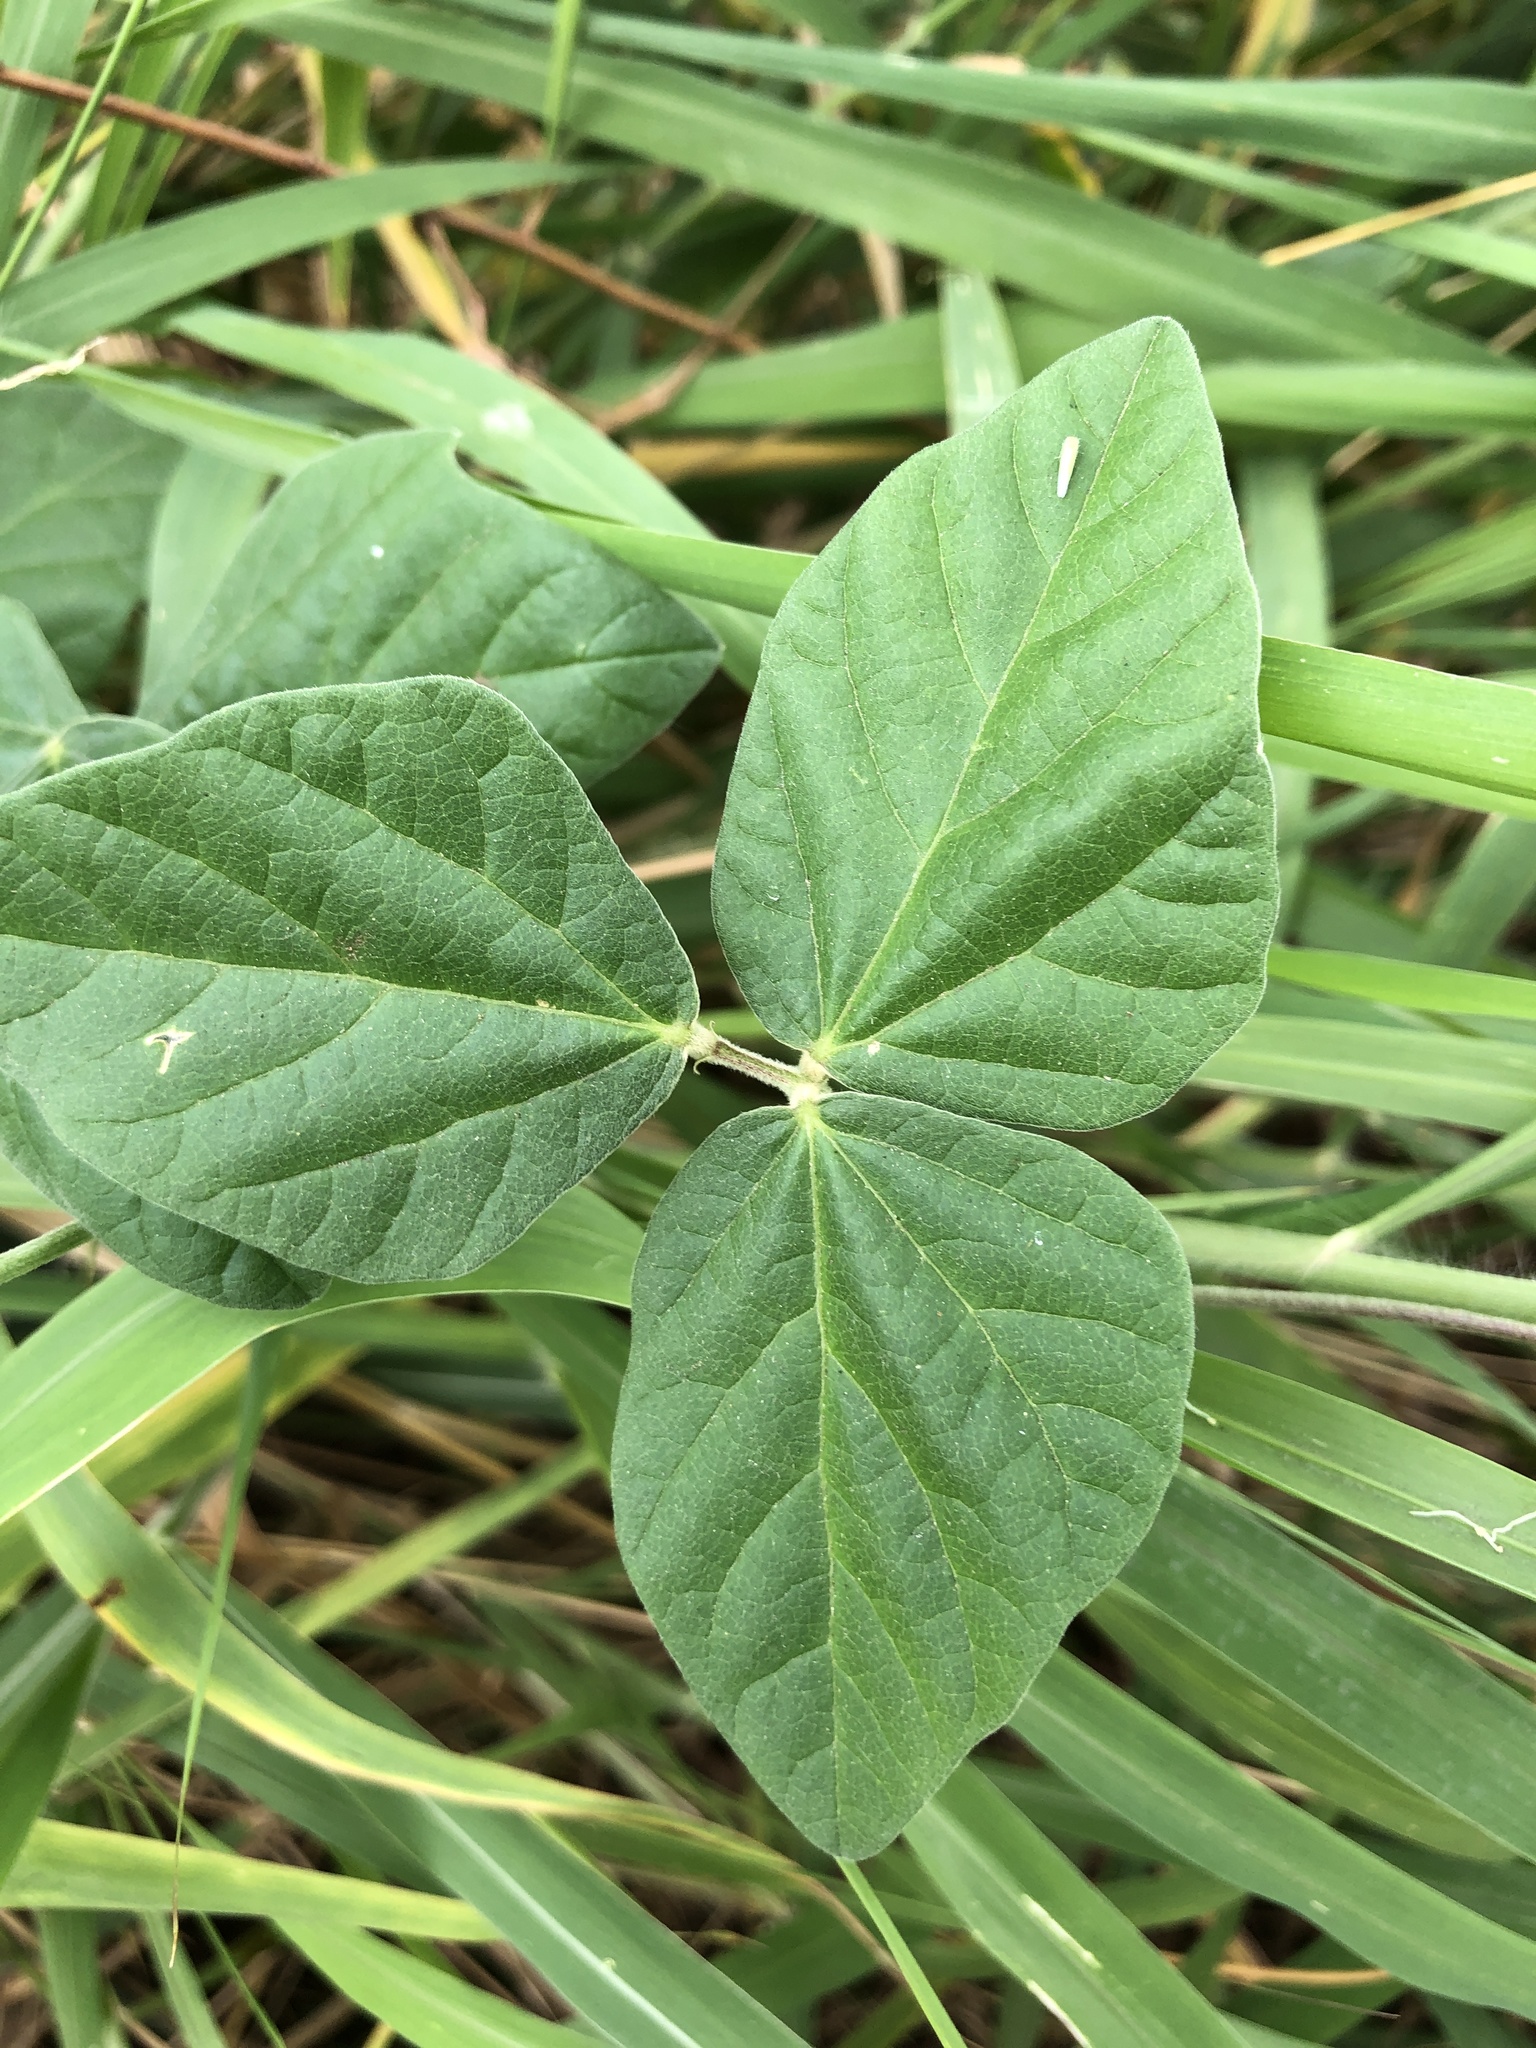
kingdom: Plantae
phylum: Tracheophyta
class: Magnoliopsida
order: Fabales
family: Fabaceae
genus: Macroptilium
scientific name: Macroptilium atropurpureum
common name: Purple bushbean
